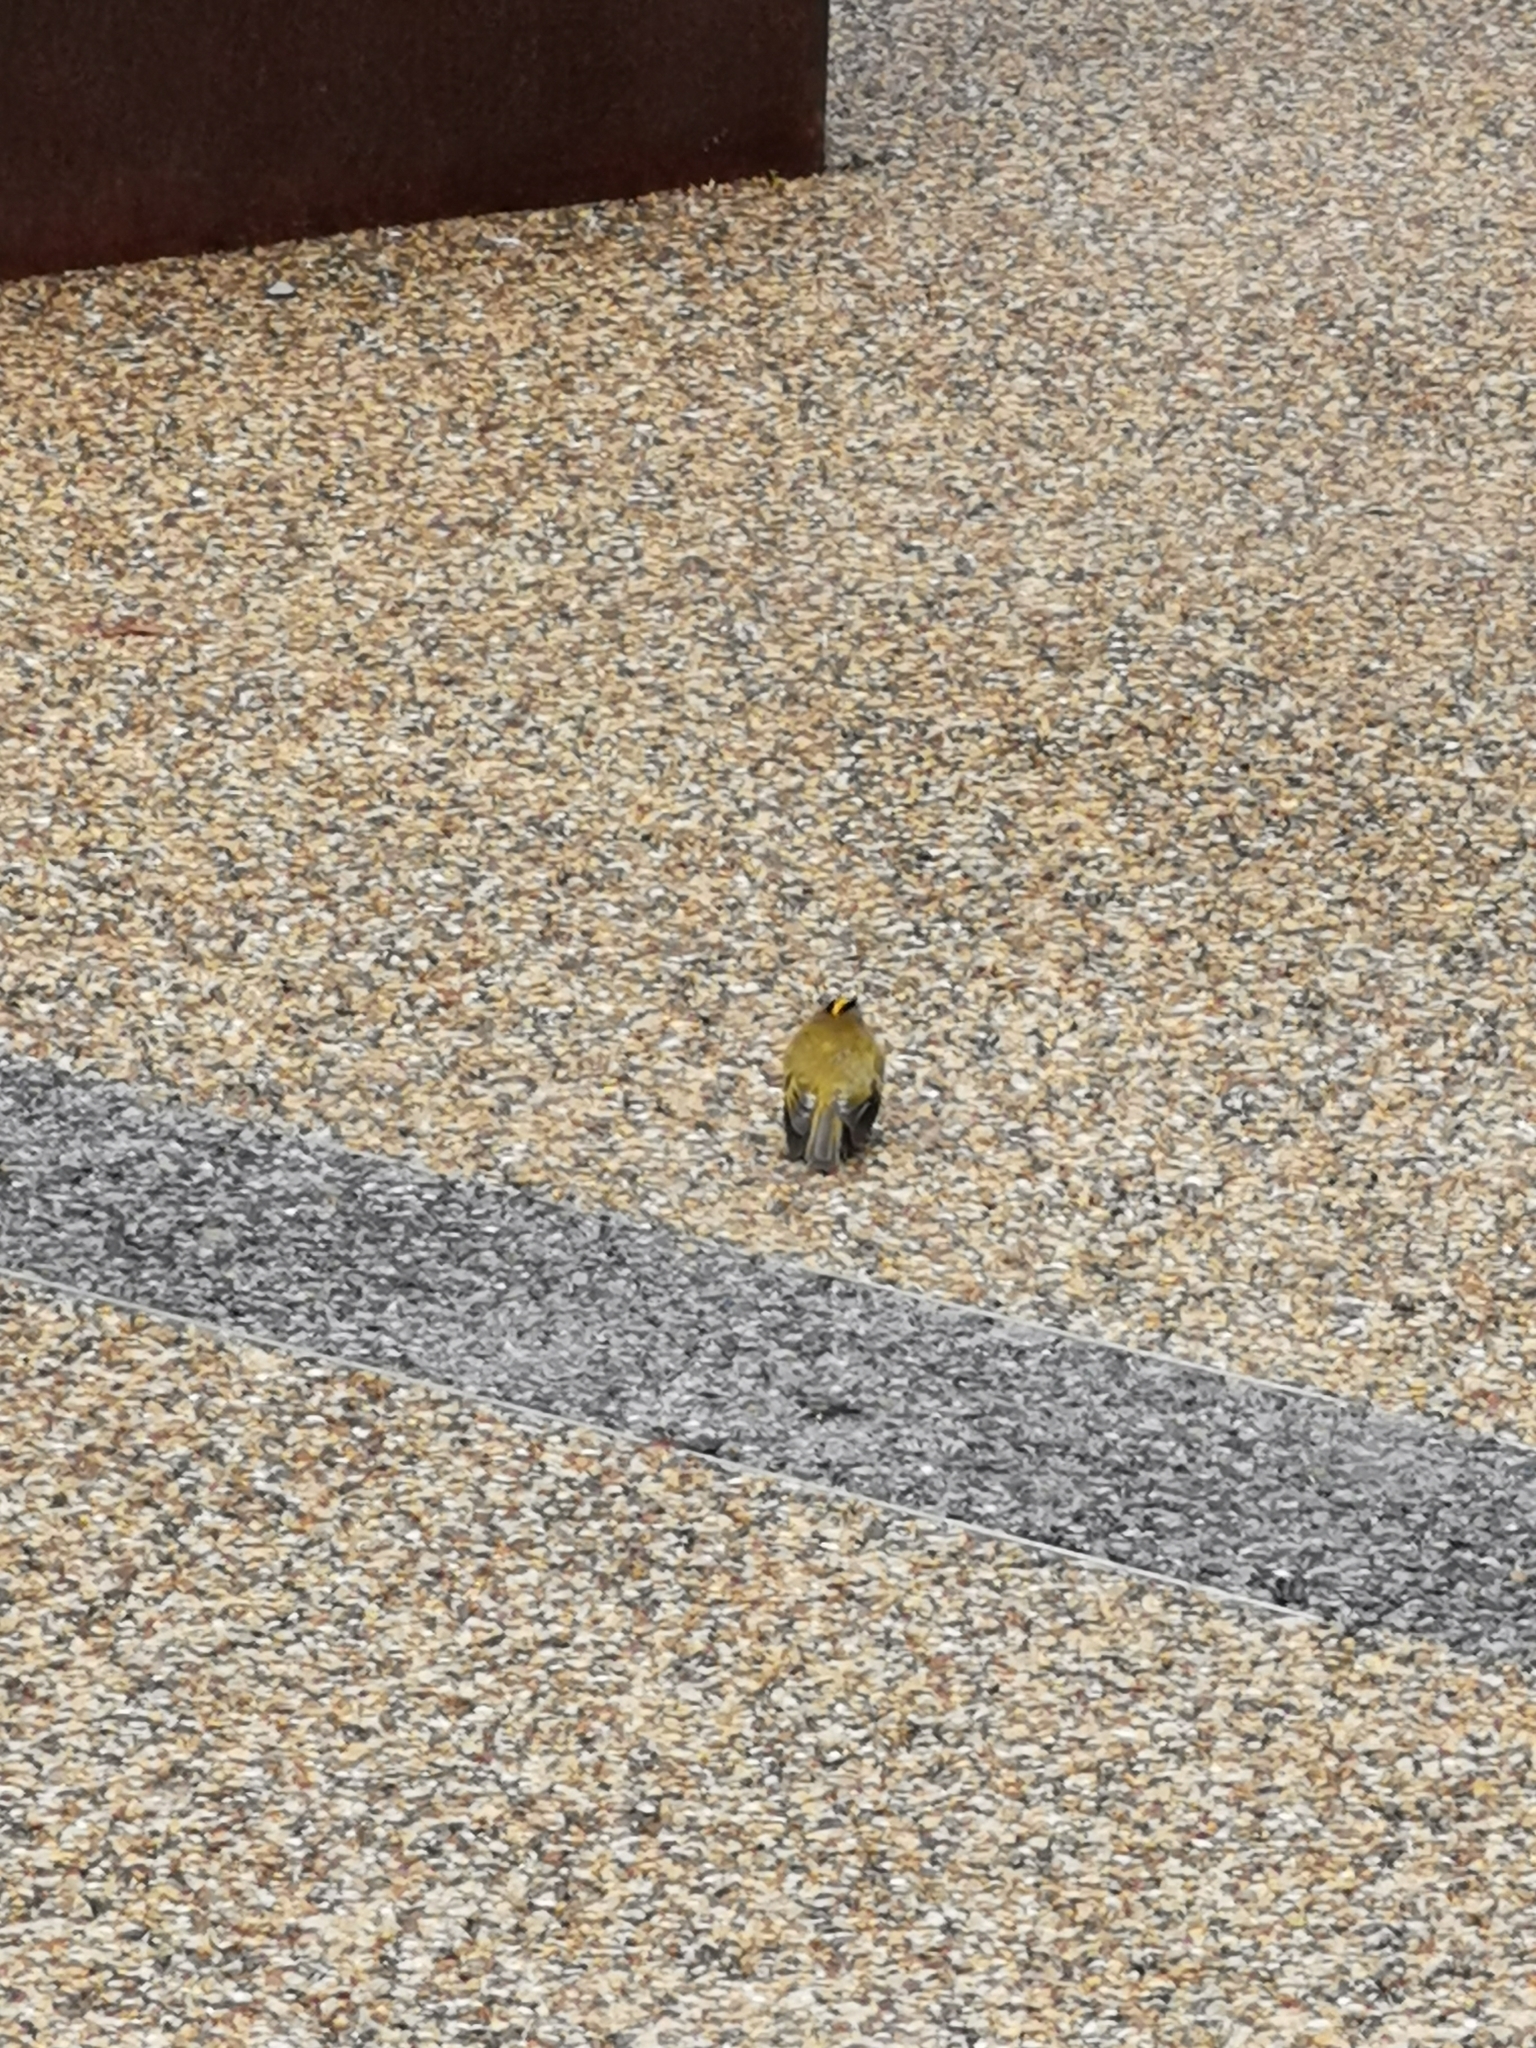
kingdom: Animalia
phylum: Chordata
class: Aves
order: Passeriformes
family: Regulidae
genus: Regulus
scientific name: Regulus regulus
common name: Goldcrest
